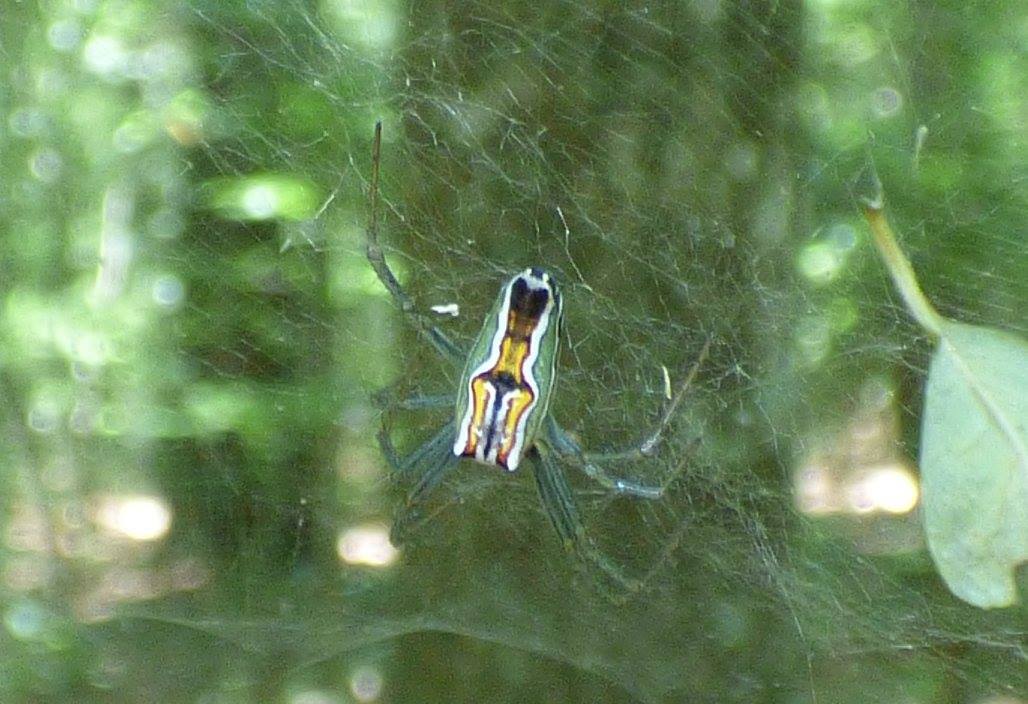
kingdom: Animalia
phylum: Arthropoda
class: Arachnida
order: Araneae
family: Araneidae
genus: Mecynogea
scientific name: Mecynogea lemniscata
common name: Orb weavers
